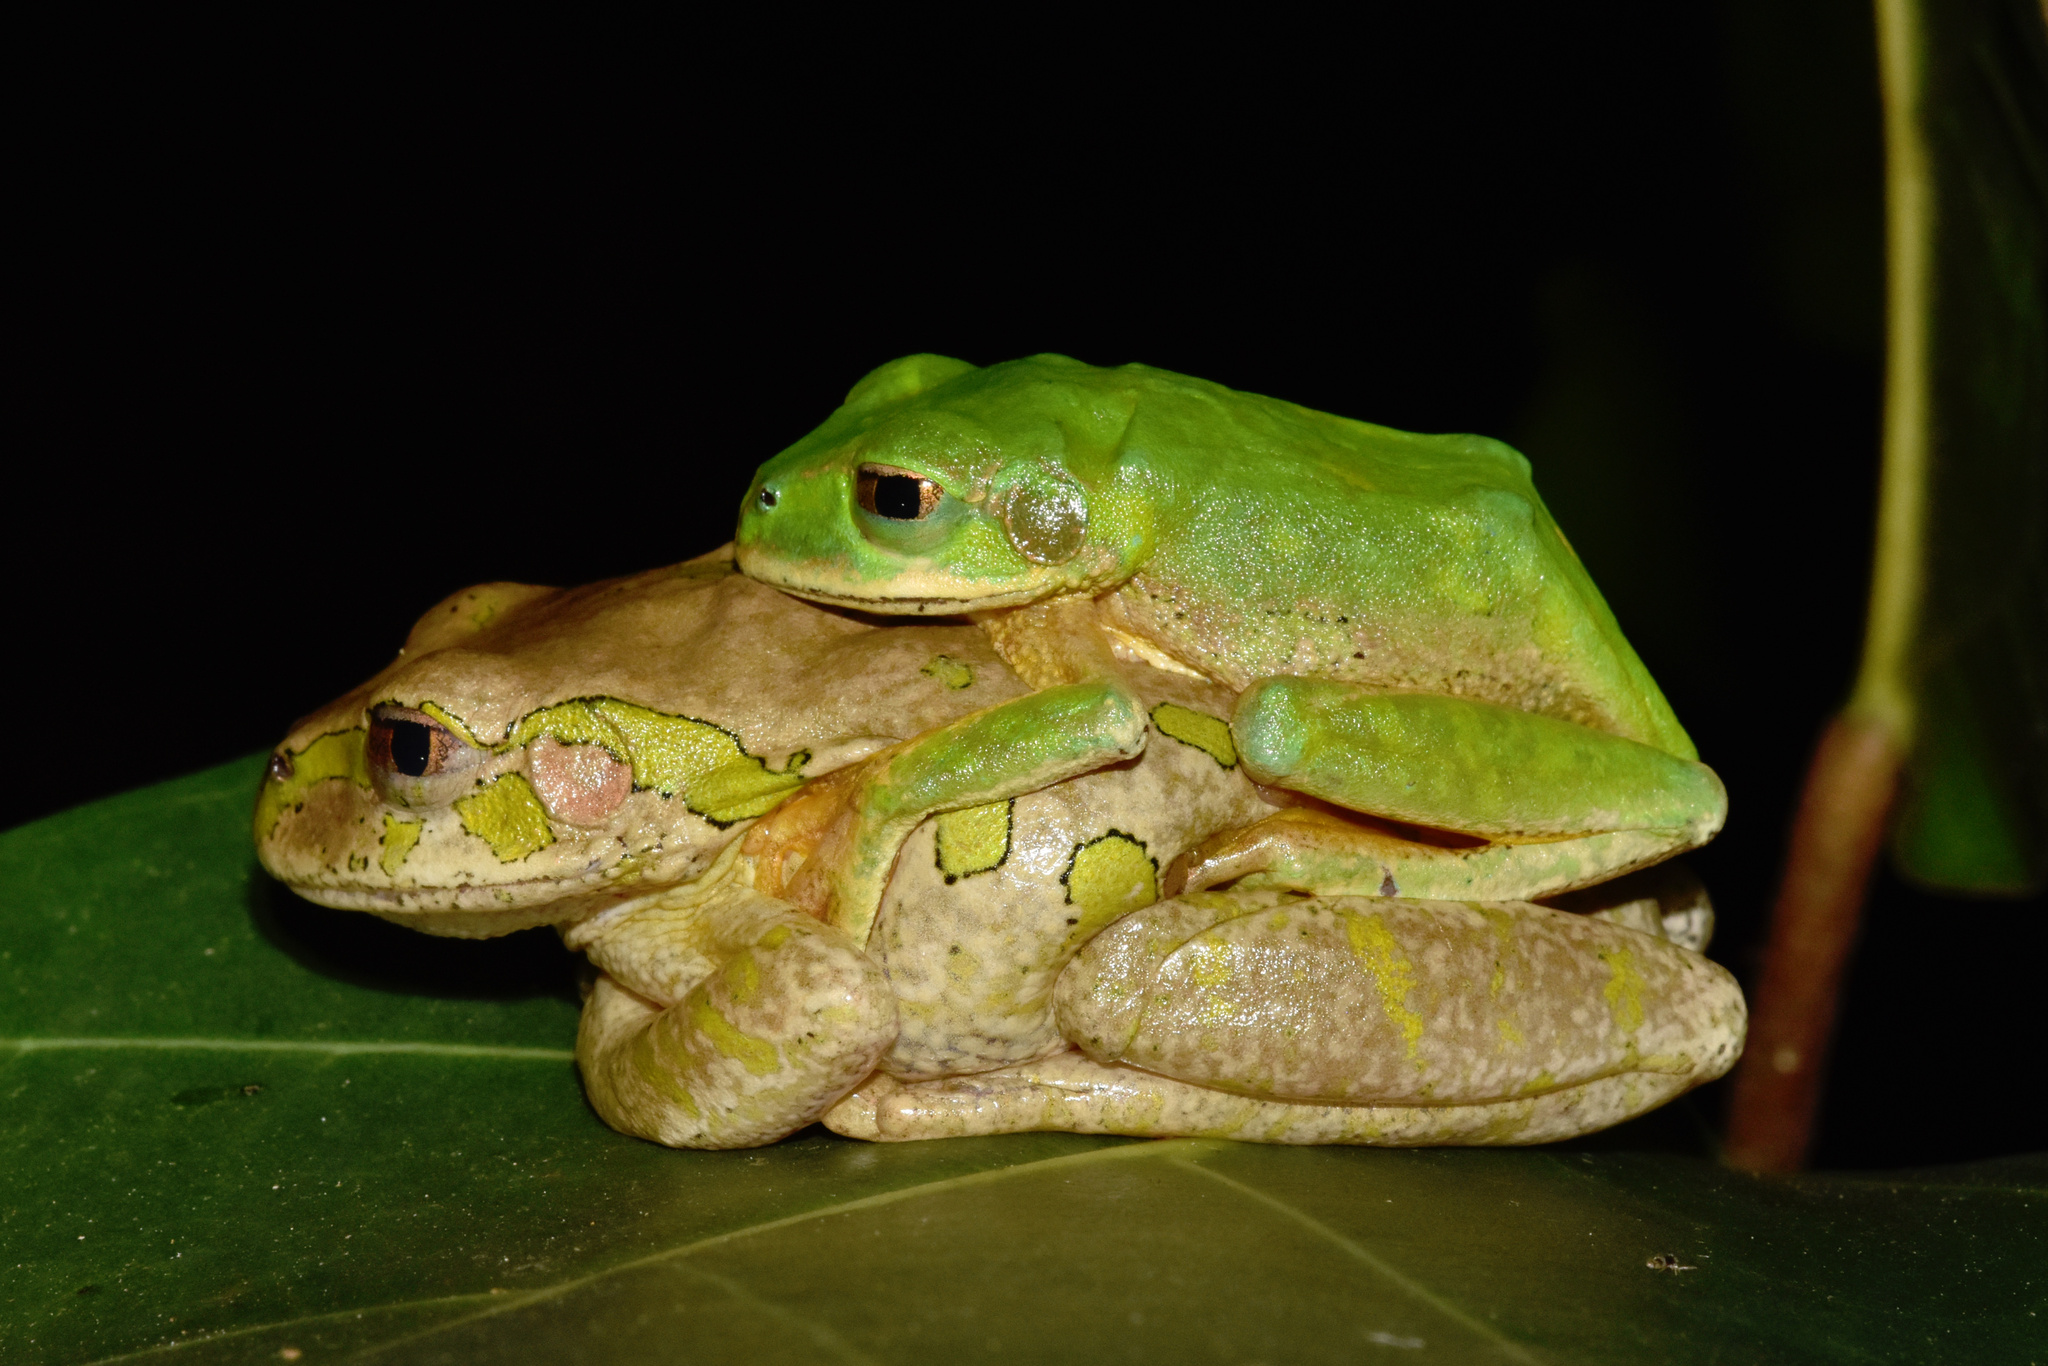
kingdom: Animalia
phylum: Chordata
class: Amphibia
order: Anura
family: Arthroleptidae
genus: Leptopelis
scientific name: Leptopelis natalensis
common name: Natal tree frog
